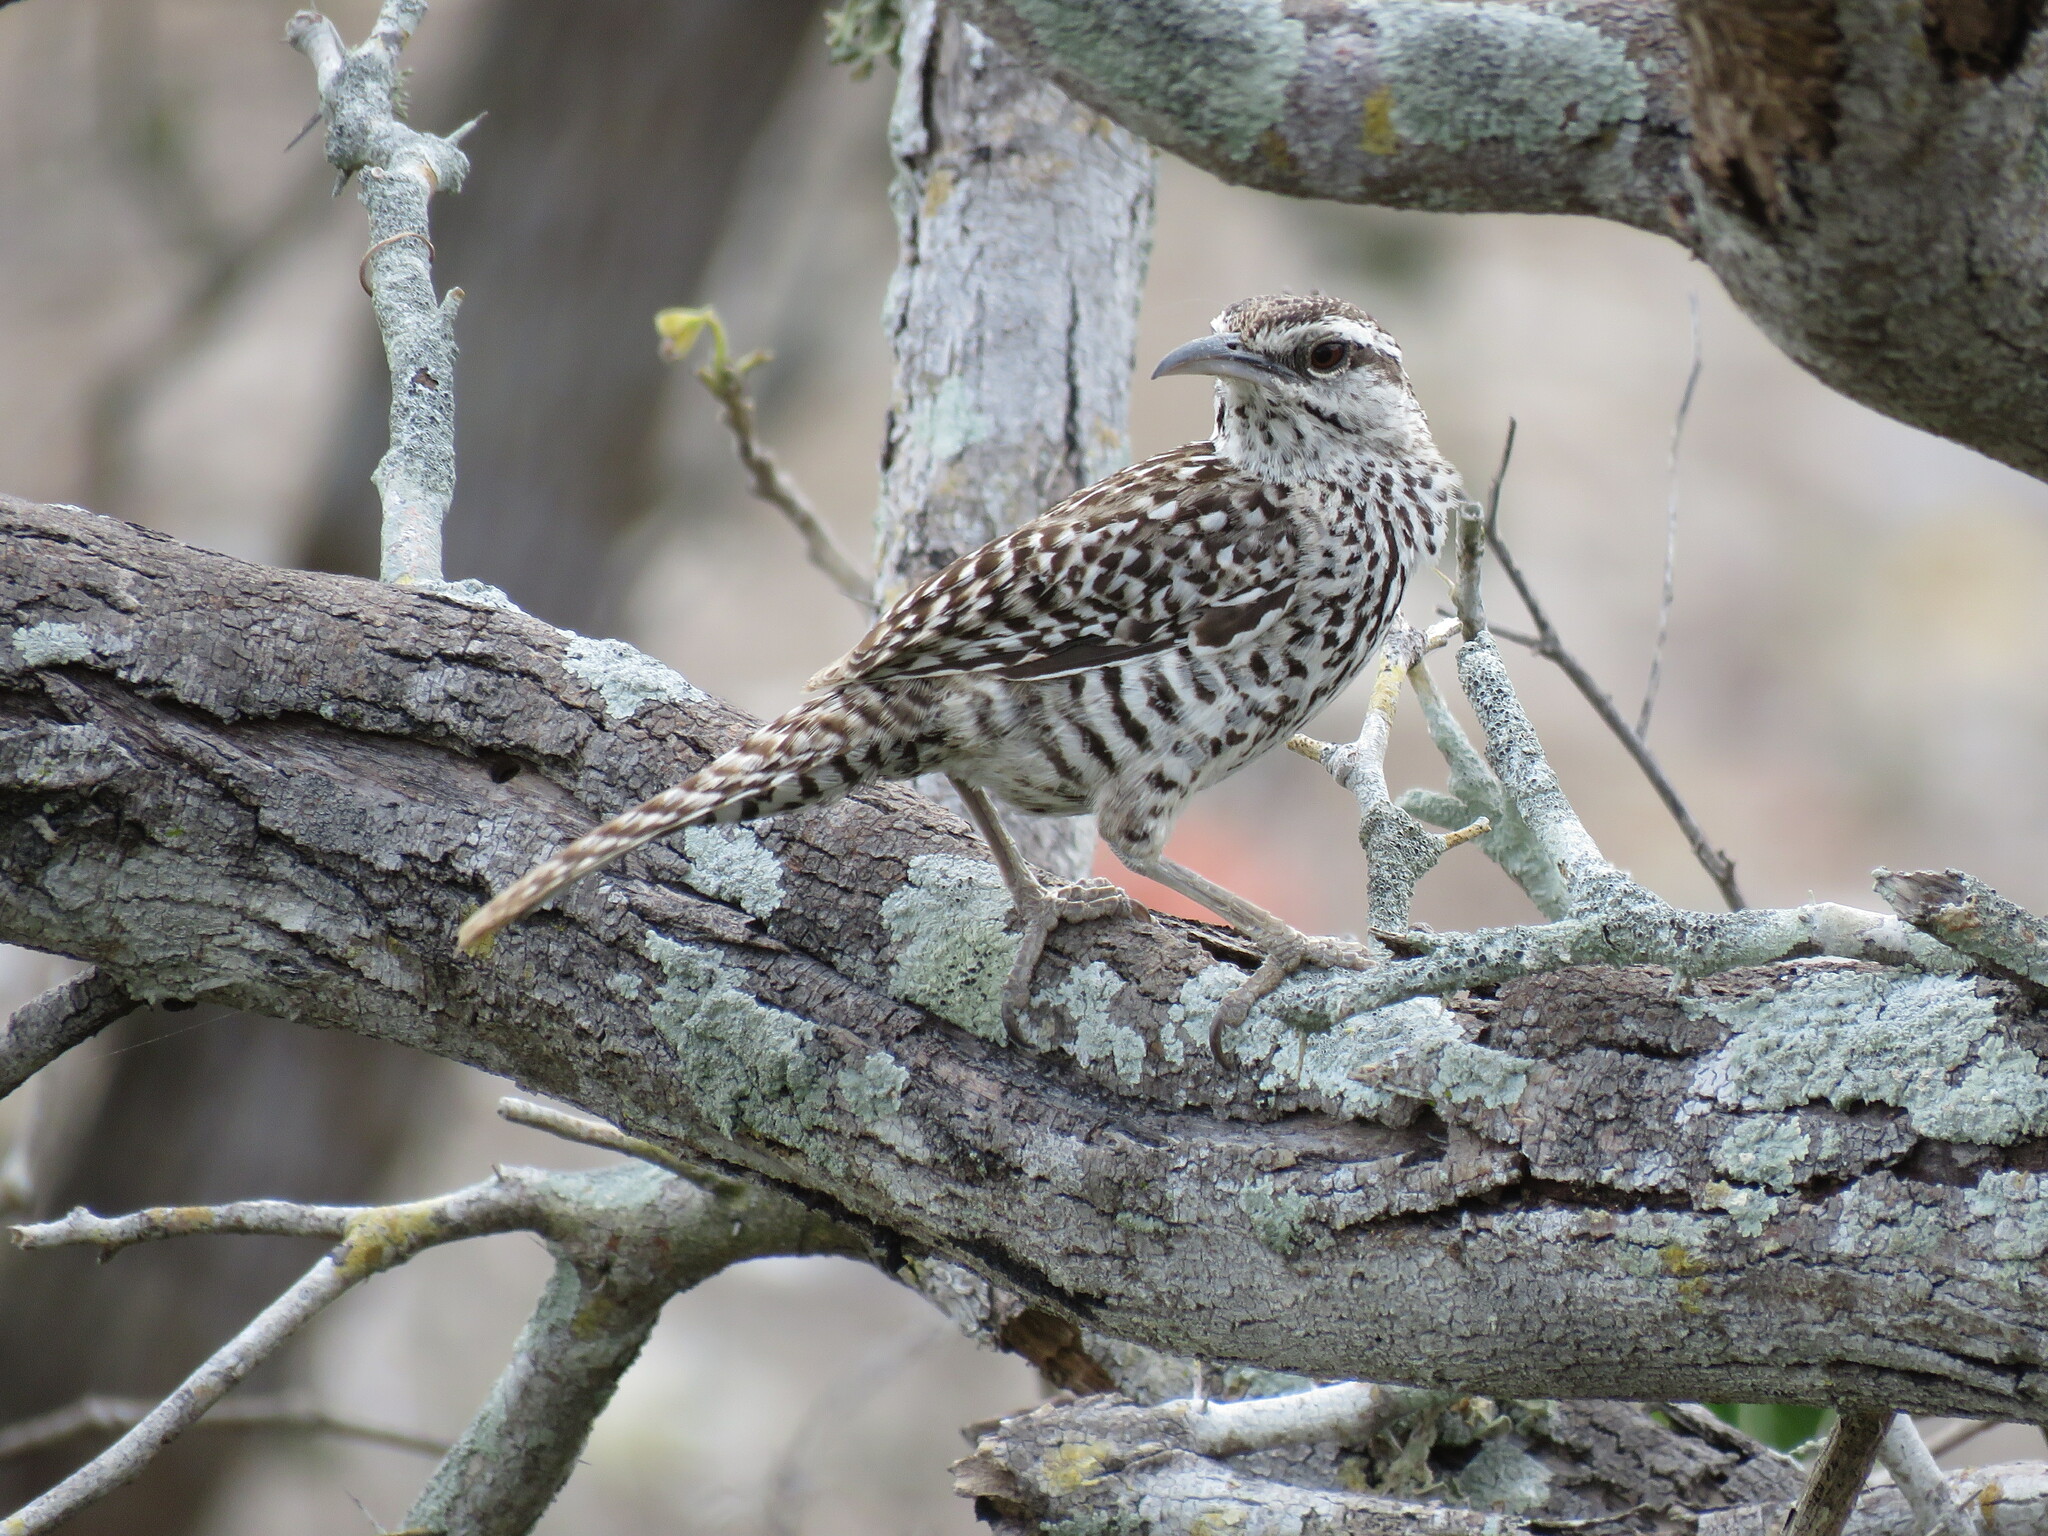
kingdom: Animalia
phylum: Chordata
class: Aves
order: Passeriformes
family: Troglodytidae
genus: Campylorhynchus
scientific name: Campylorhynchus yucatanicus
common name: Yucatan wren
